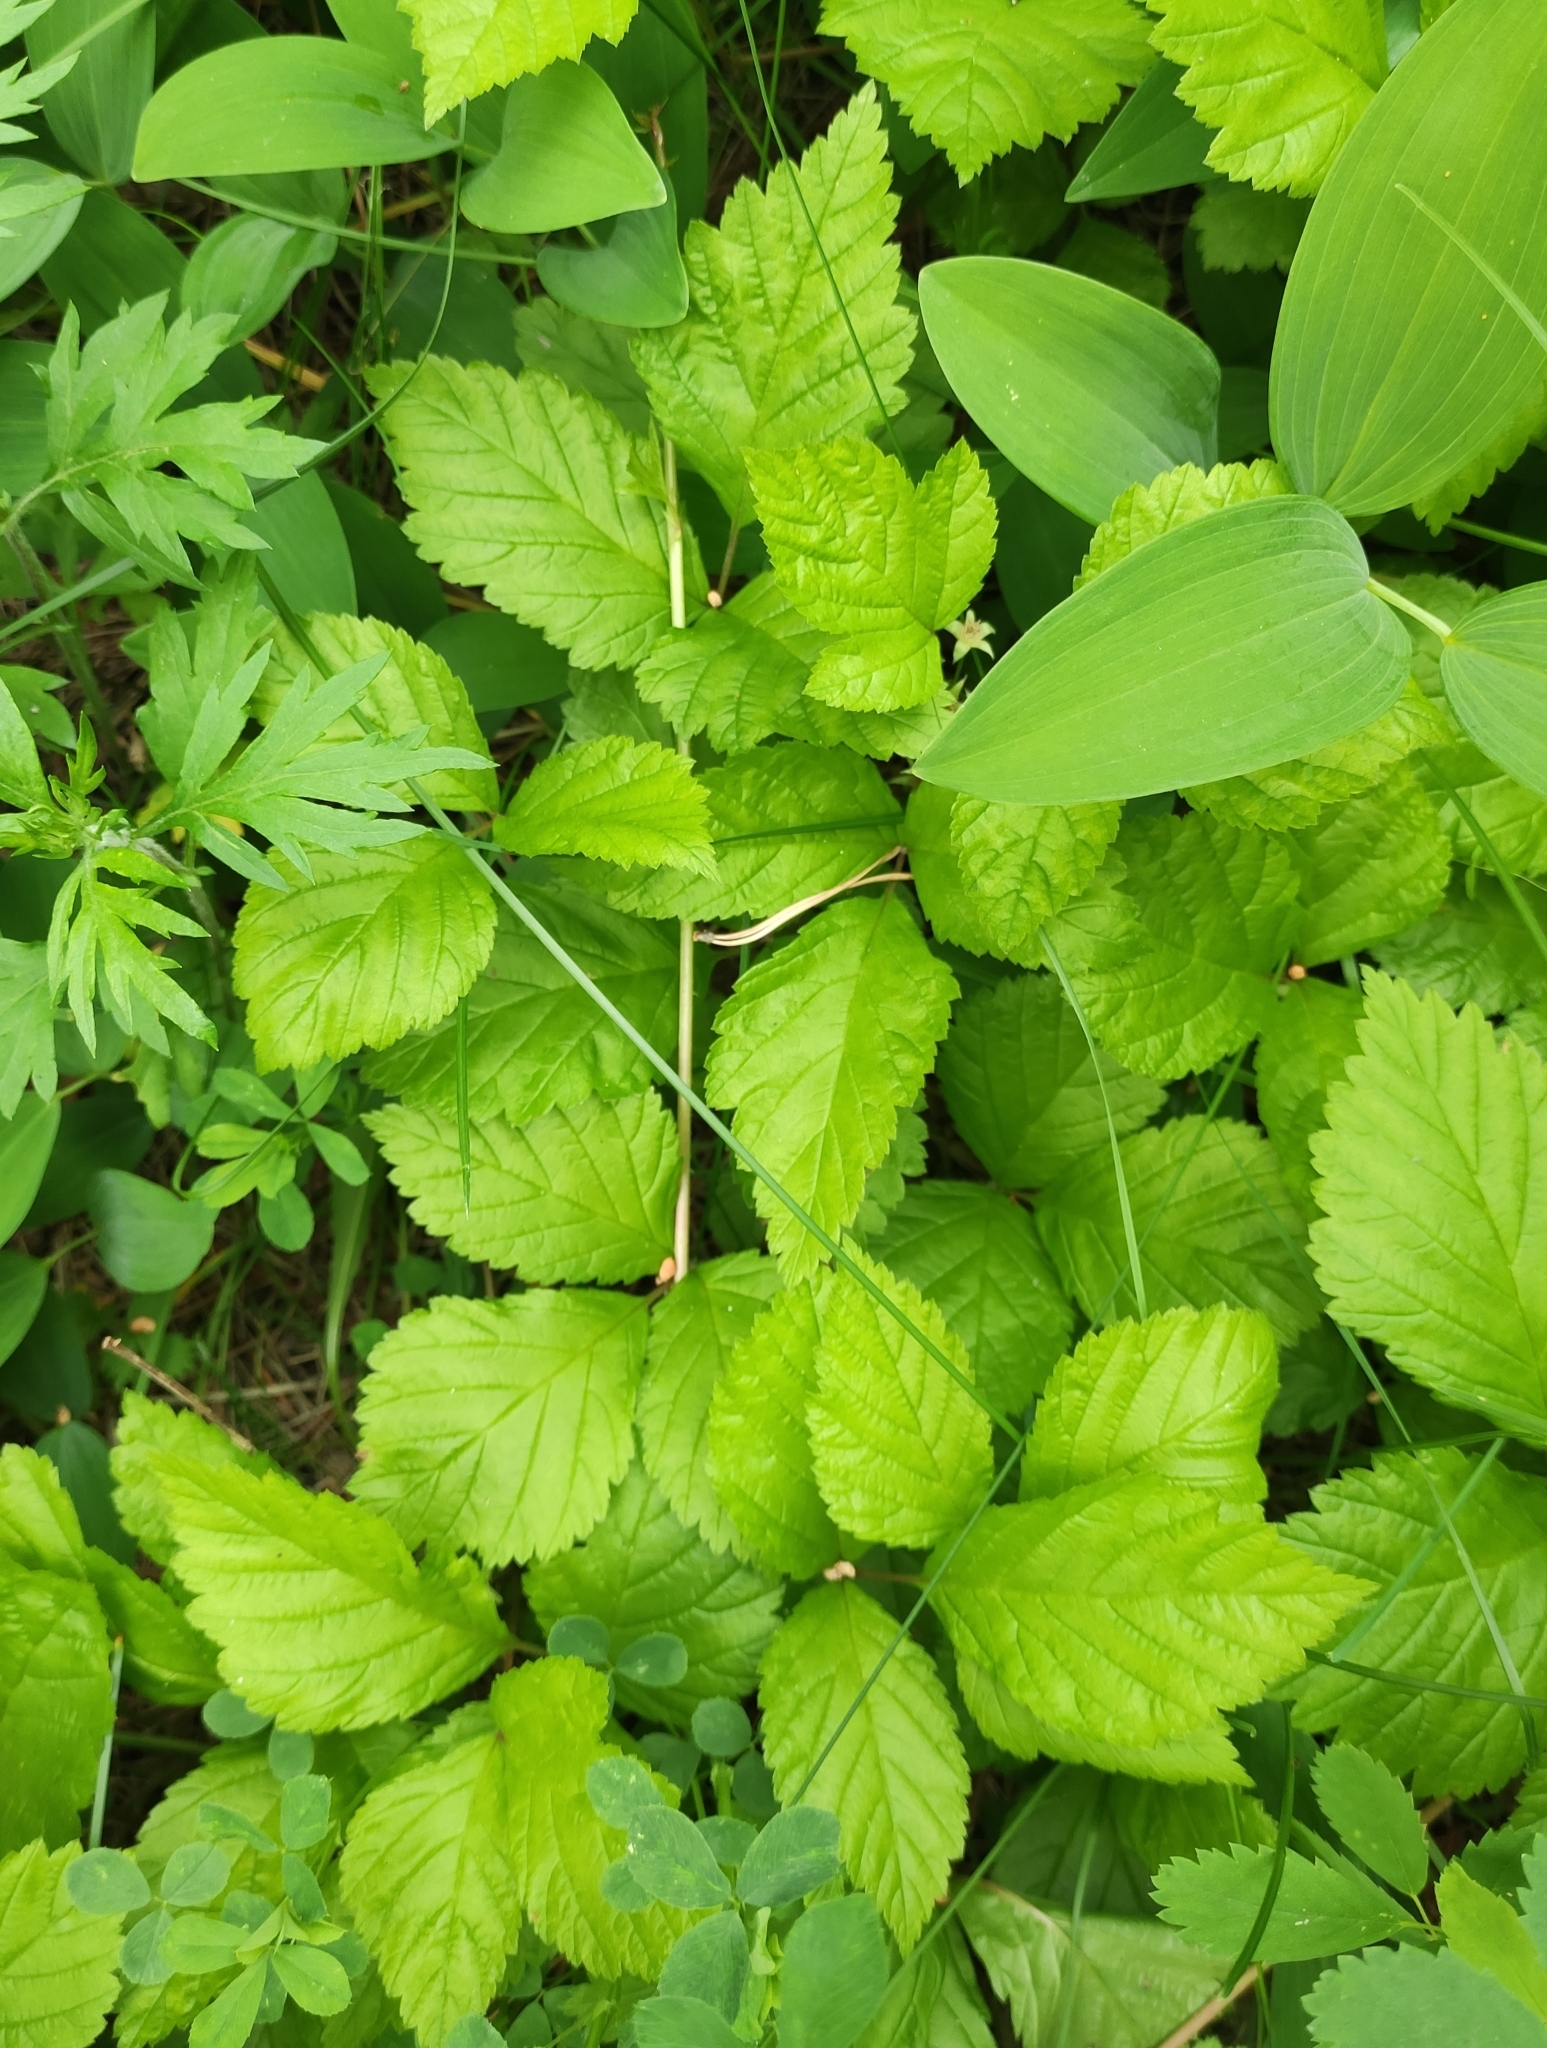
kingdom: Plantae
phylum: Tracheophyta
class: Magnoliopsida
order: Rosales
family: Rosaceae
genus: Rubus
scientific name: Rubus saxatilis
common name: Stone bramble
